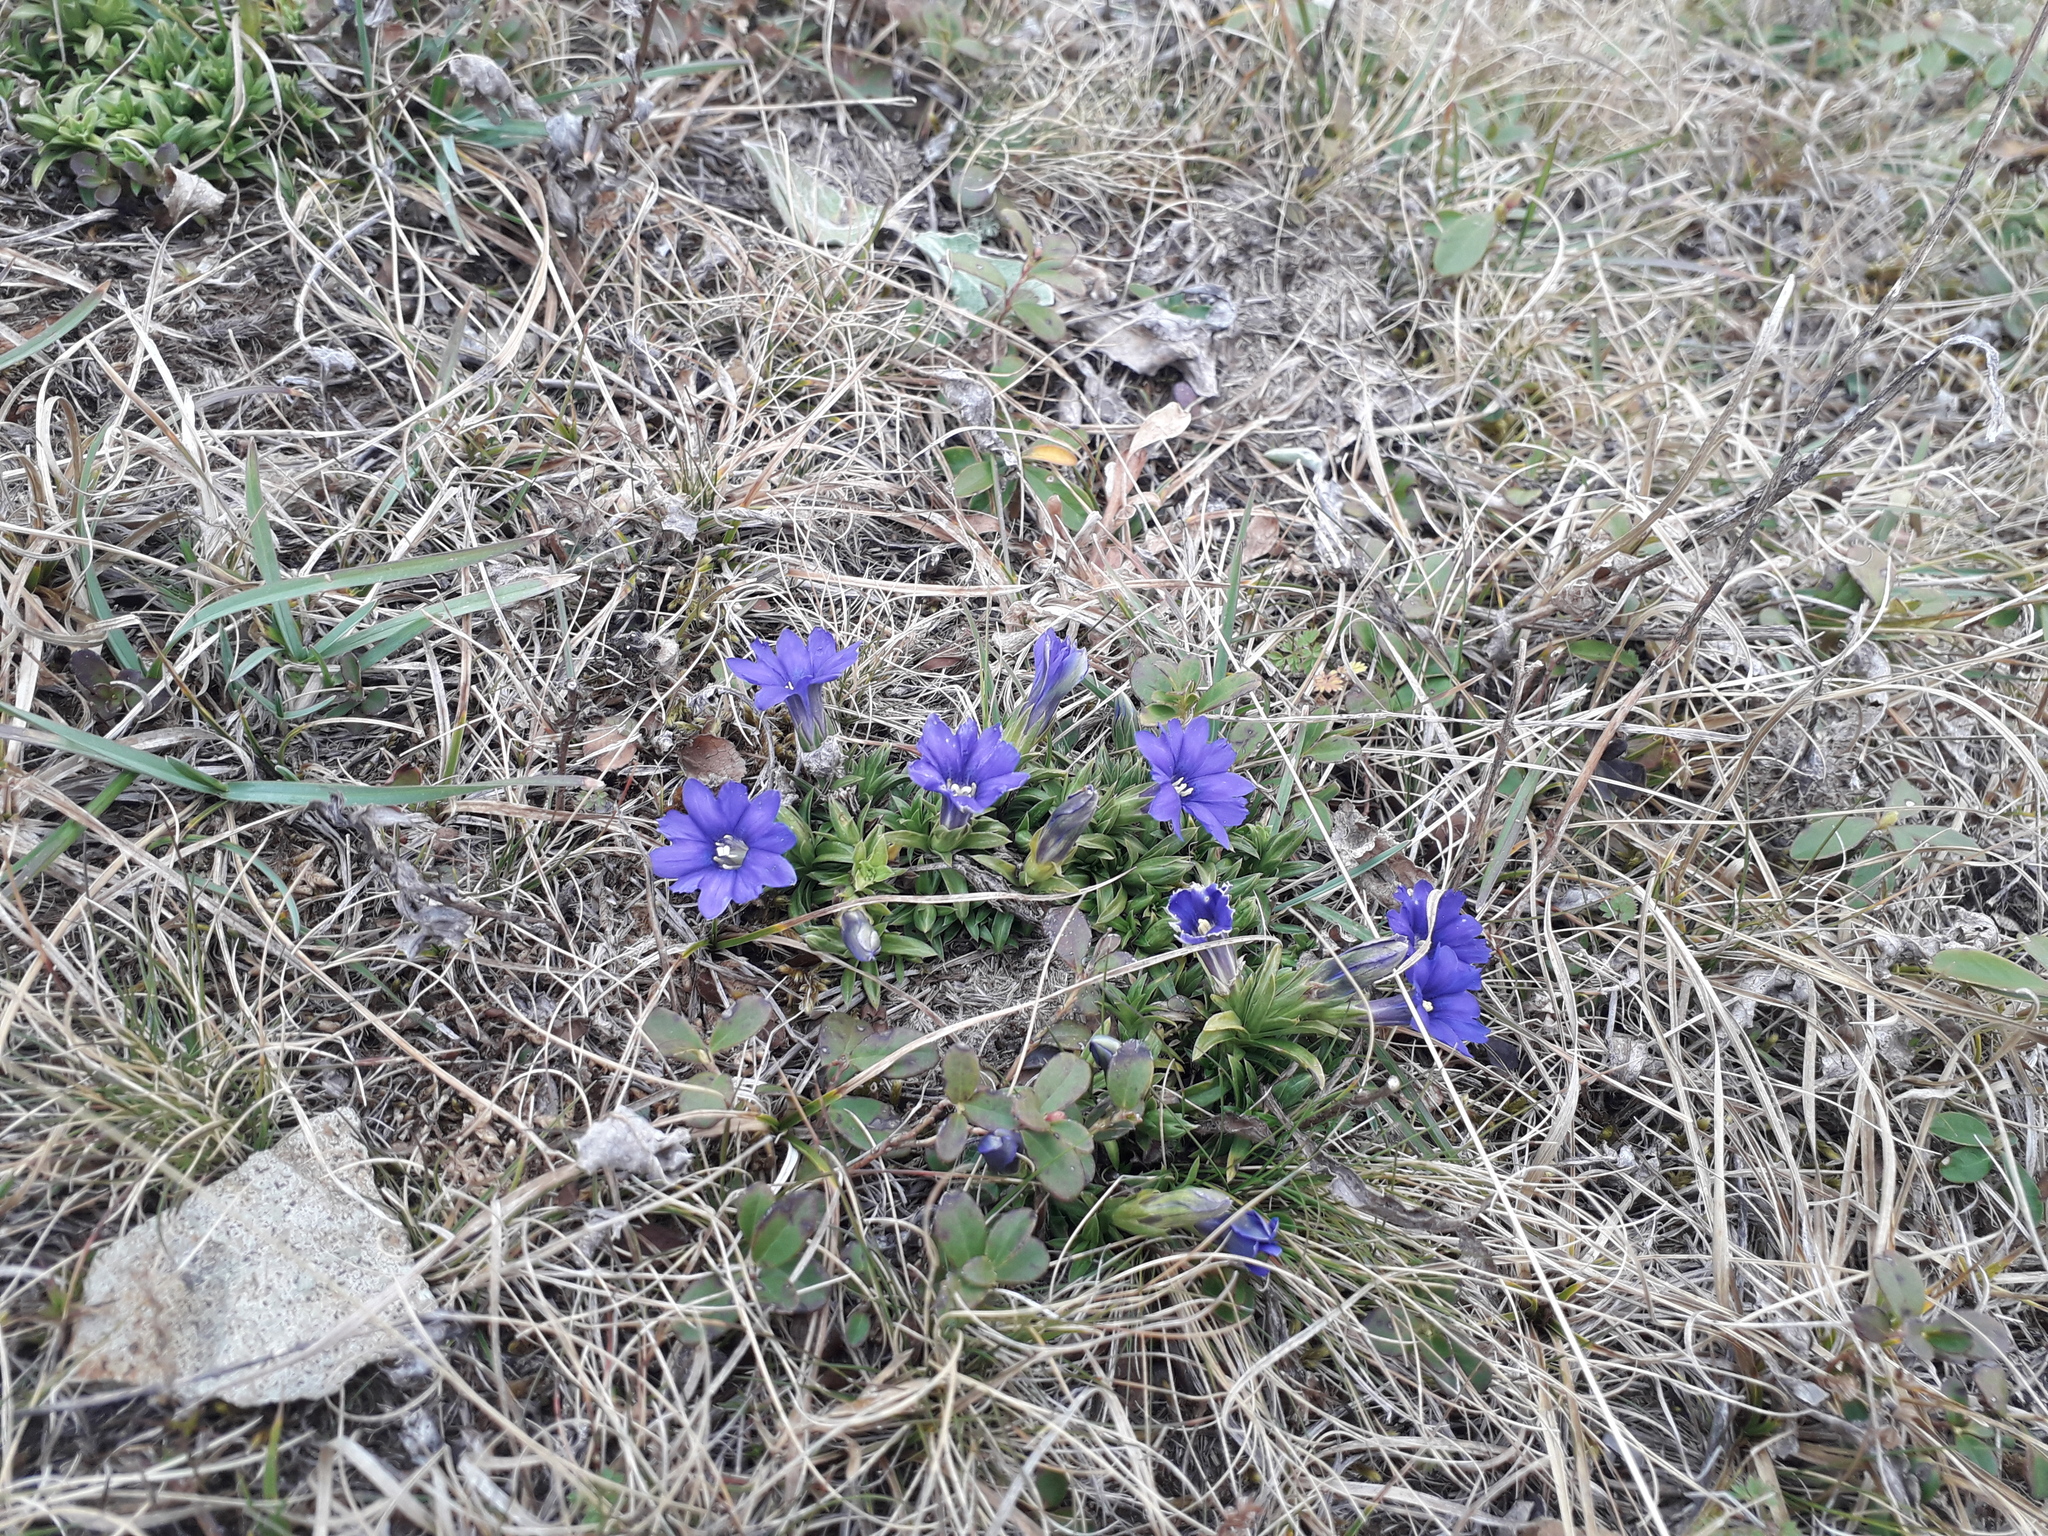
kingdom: Plantae
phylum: Tracheophyta
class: Magnoliopsida
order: Gentianales
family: Gentianaceae
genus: Gentiana
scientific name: Gentiana dshimilensis
